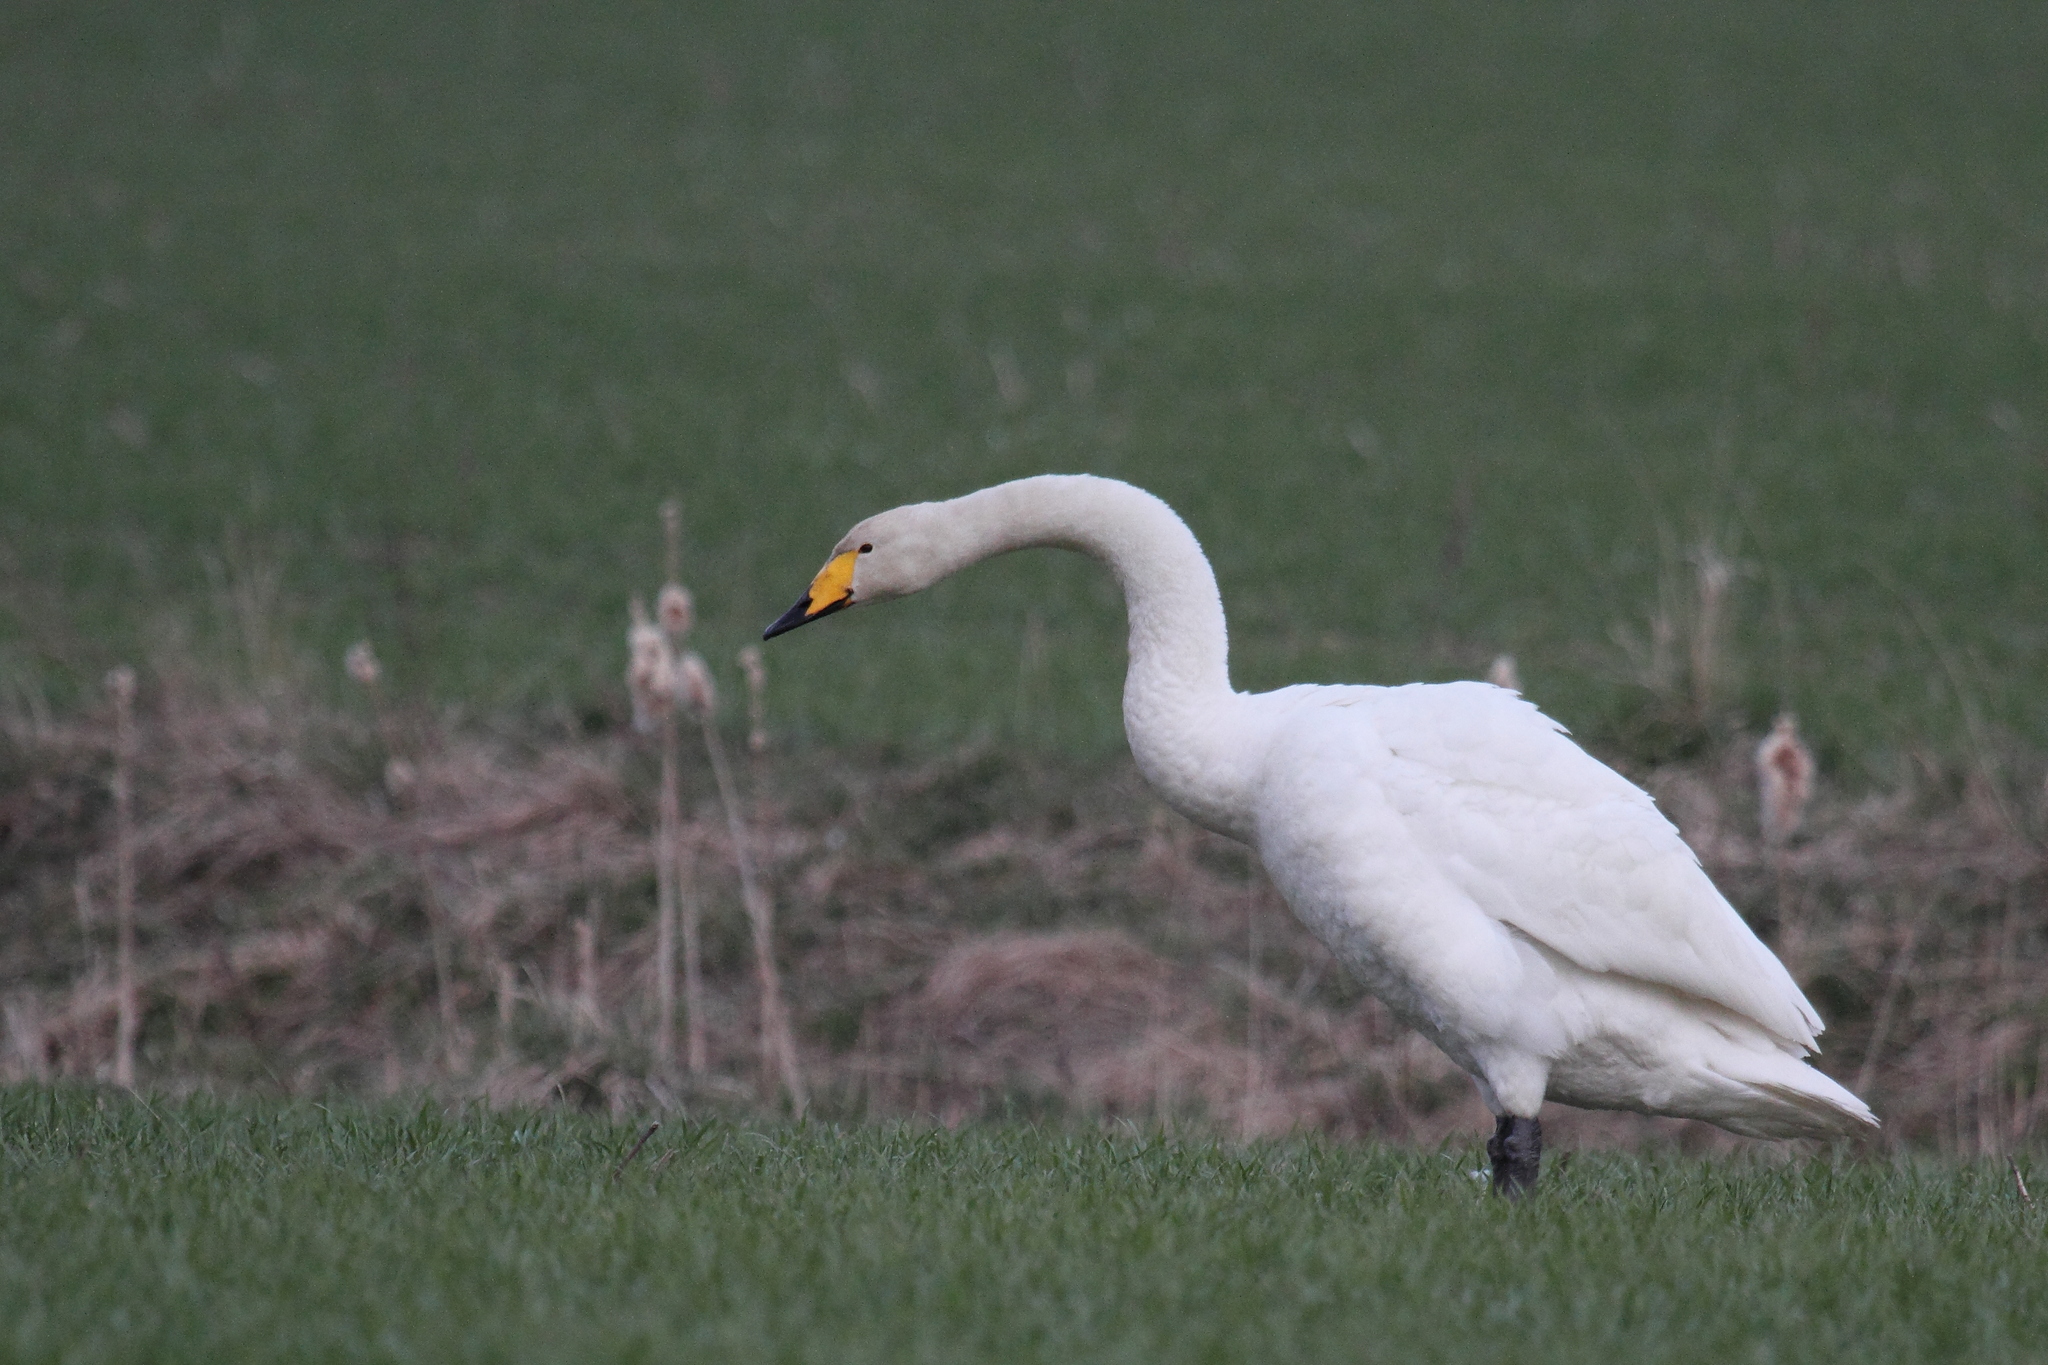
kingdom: Animalia
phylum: Chordata
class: Aves
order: Anseriformes
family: Anatidae
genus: Cygnus
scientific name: Cygnus cygnus
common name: Whooper swan
